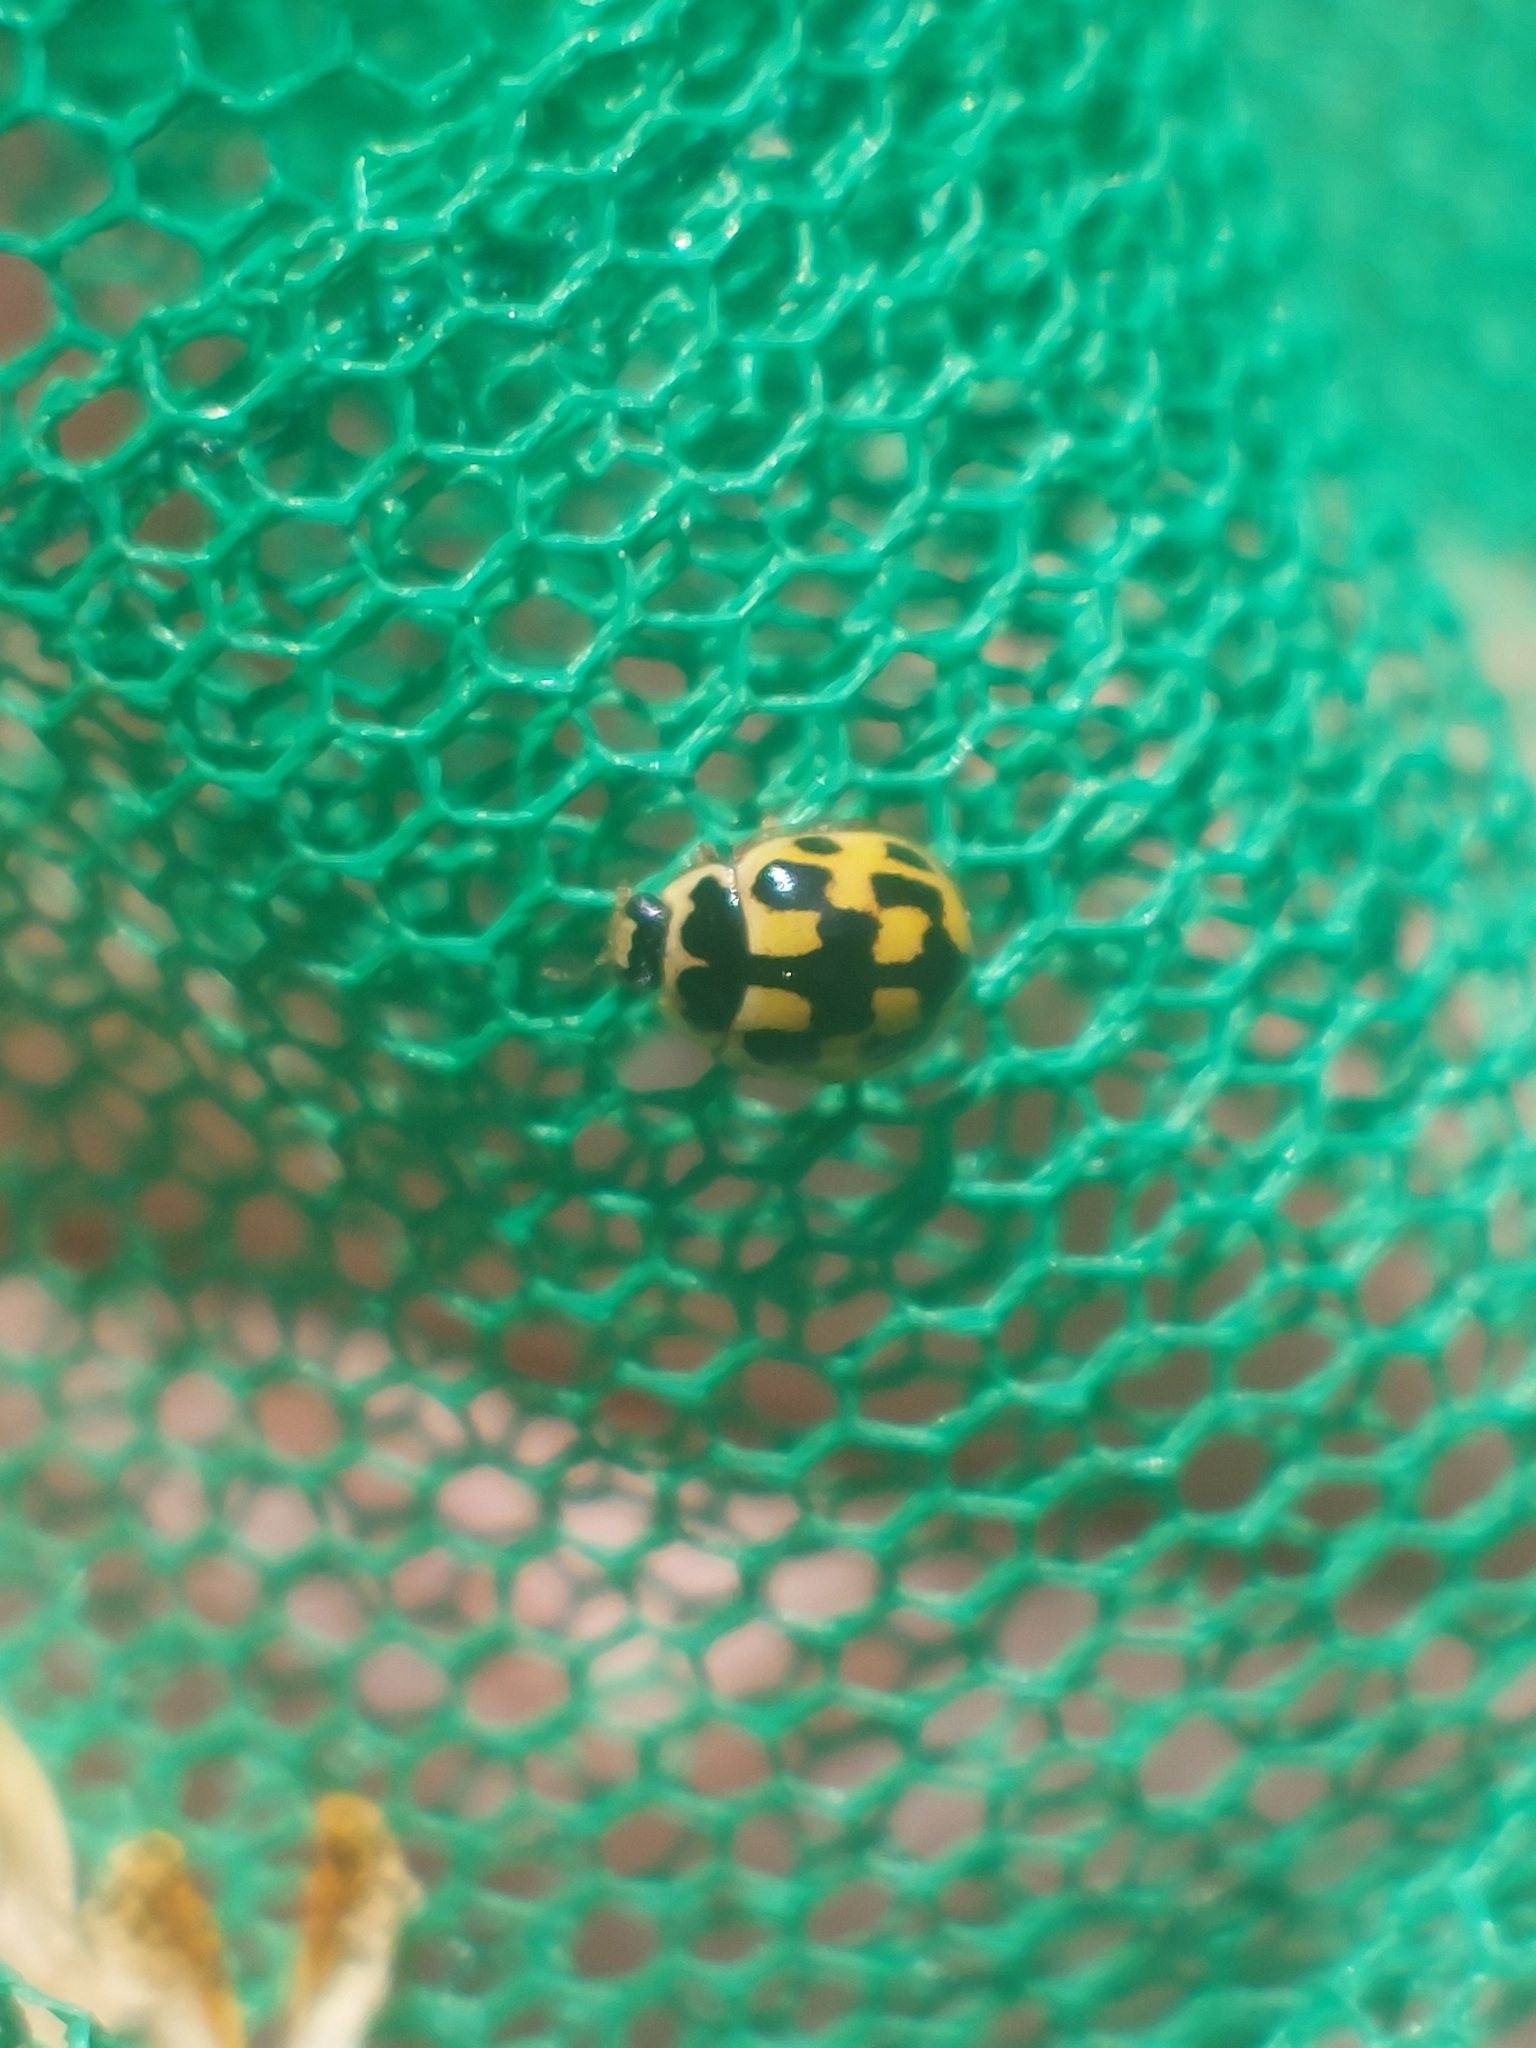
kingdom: Animalia
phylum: Arthropoda
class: Insecta
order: Coleoptera
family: Coccinellidae
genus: Propylaea
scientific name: Propylaea quatuordecimpunctata
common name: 14-spotted ladybird beetle
